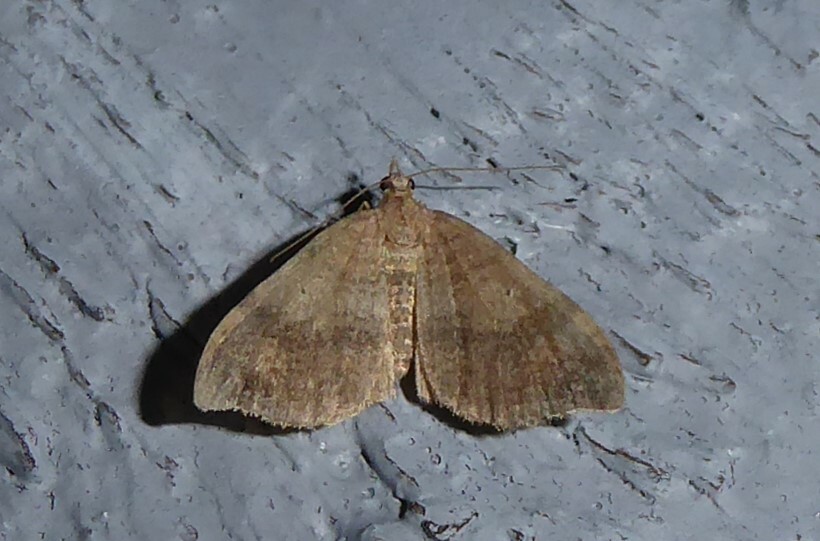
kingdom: Animalia
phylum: Arthropoda
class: Insecta
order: Lepidoptera
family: Geometridae
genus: Homodotis
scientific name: Homodotis megaspilata
